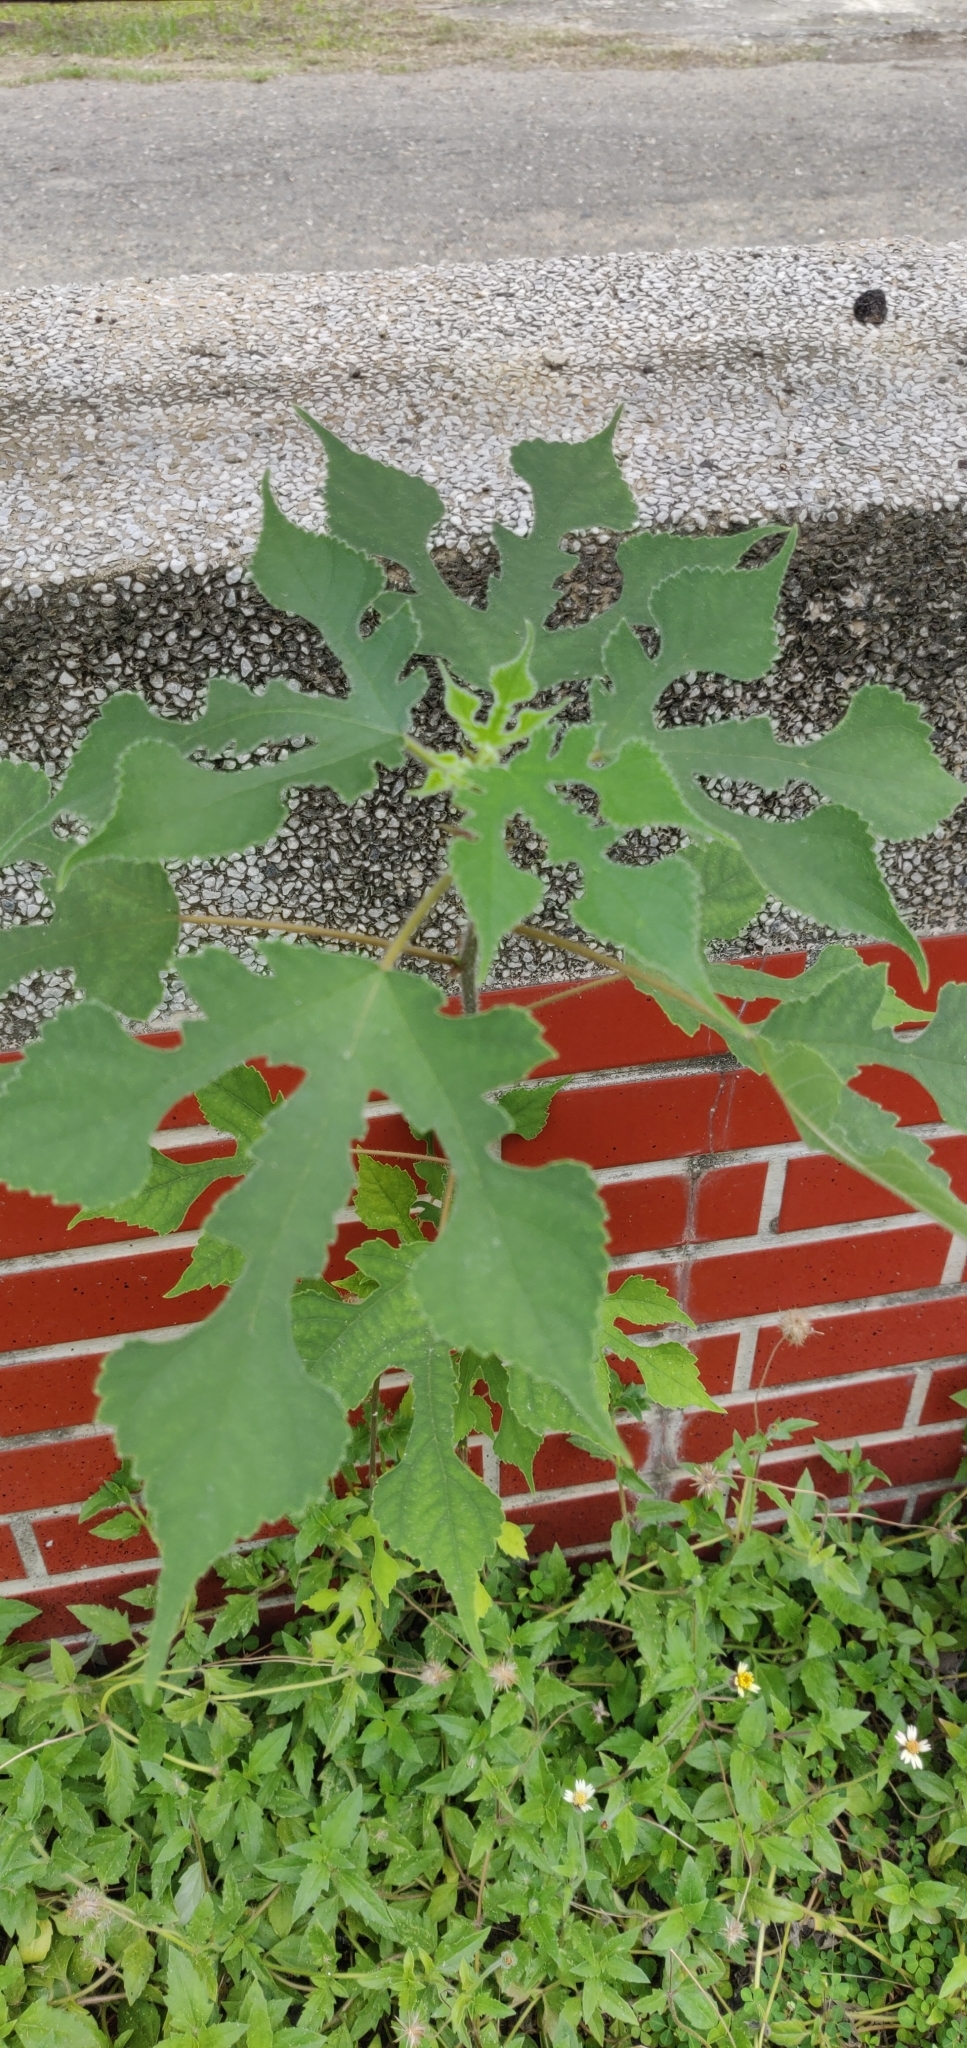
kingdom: Plantae
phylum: Tracheophyta
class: Magnoliopsida
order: Rosales
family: Moraceae
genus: Broussonetia
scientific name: Broussonetia papyrifera
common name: Paper mulberry
